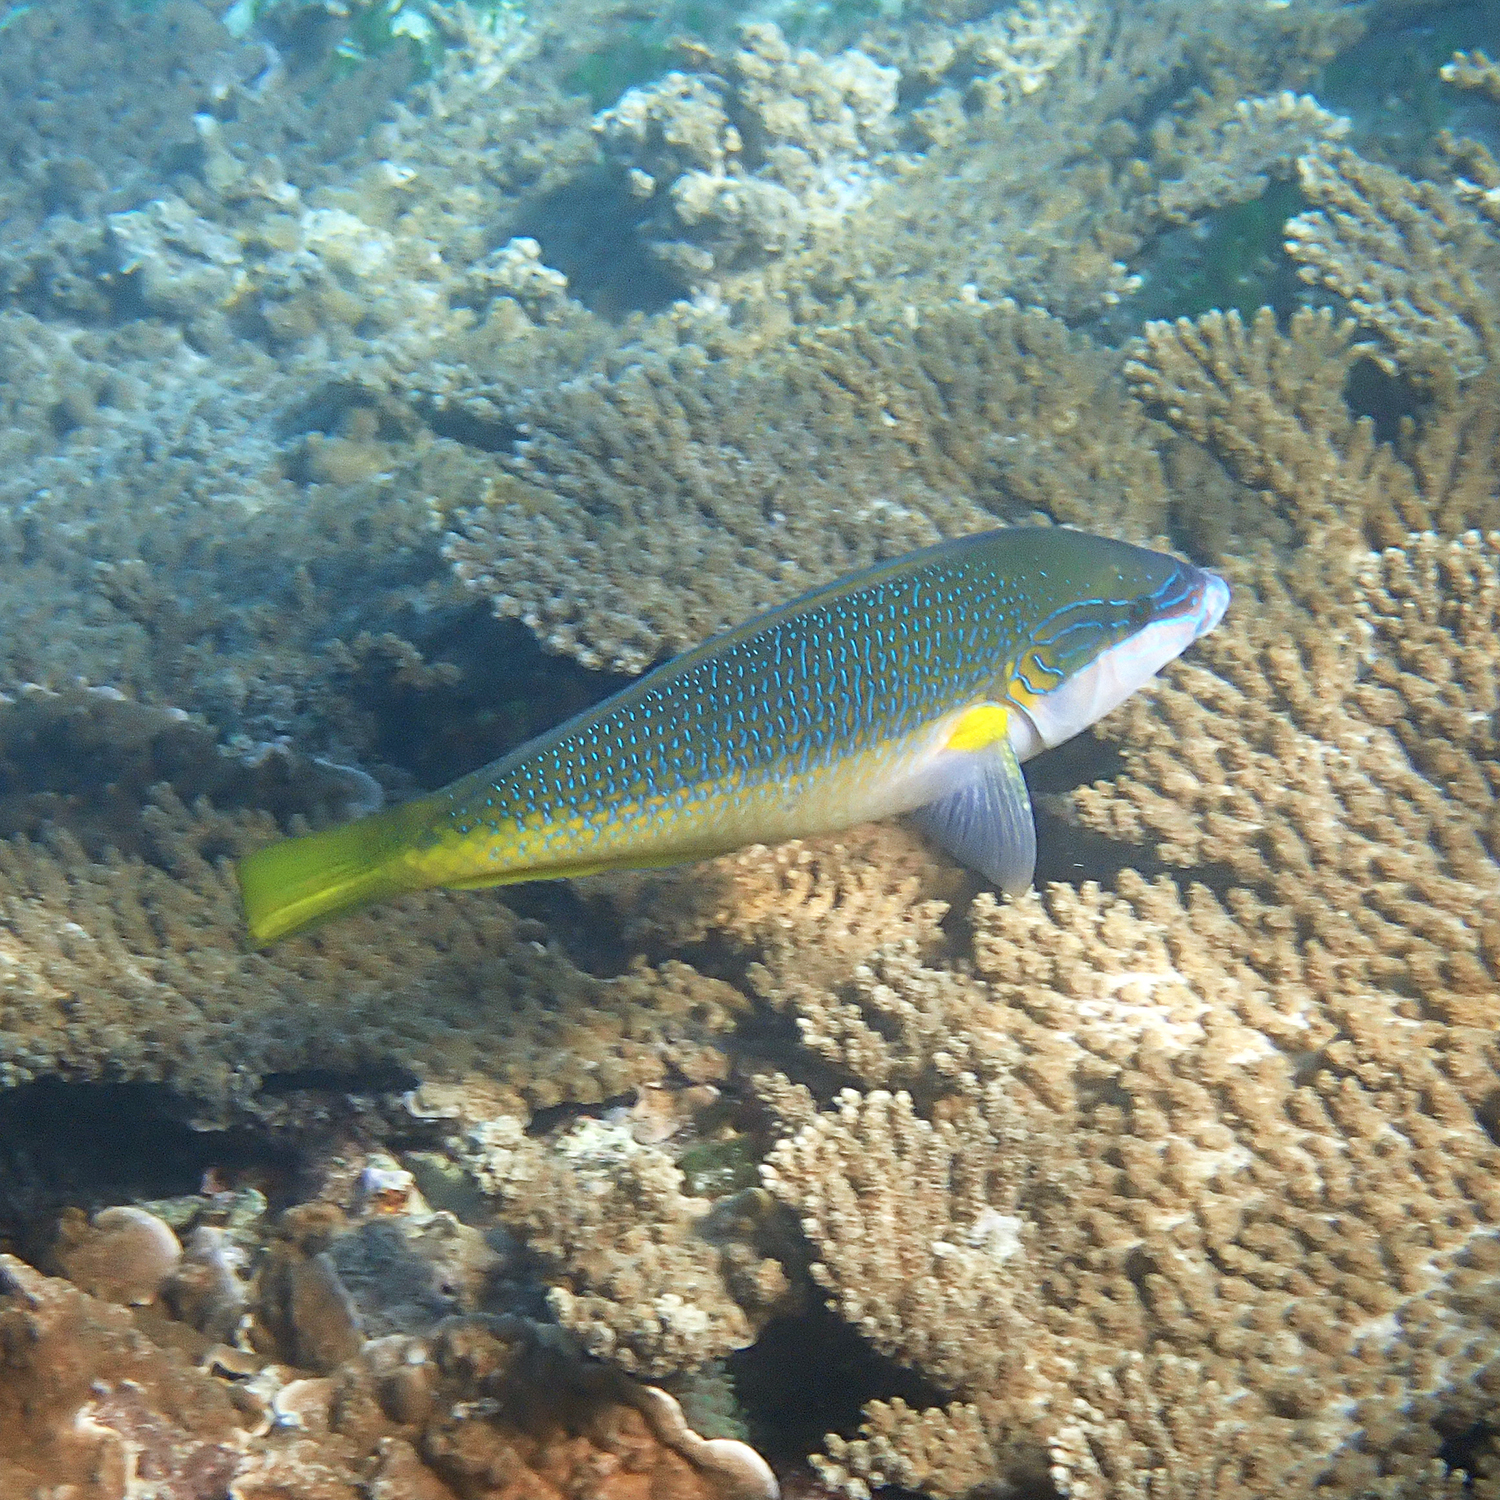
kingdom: Animalia
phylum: Chordata
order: Perciformes
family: Labridae
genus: Anampses
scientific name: Anampses elegans
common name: Elegant wrasse
